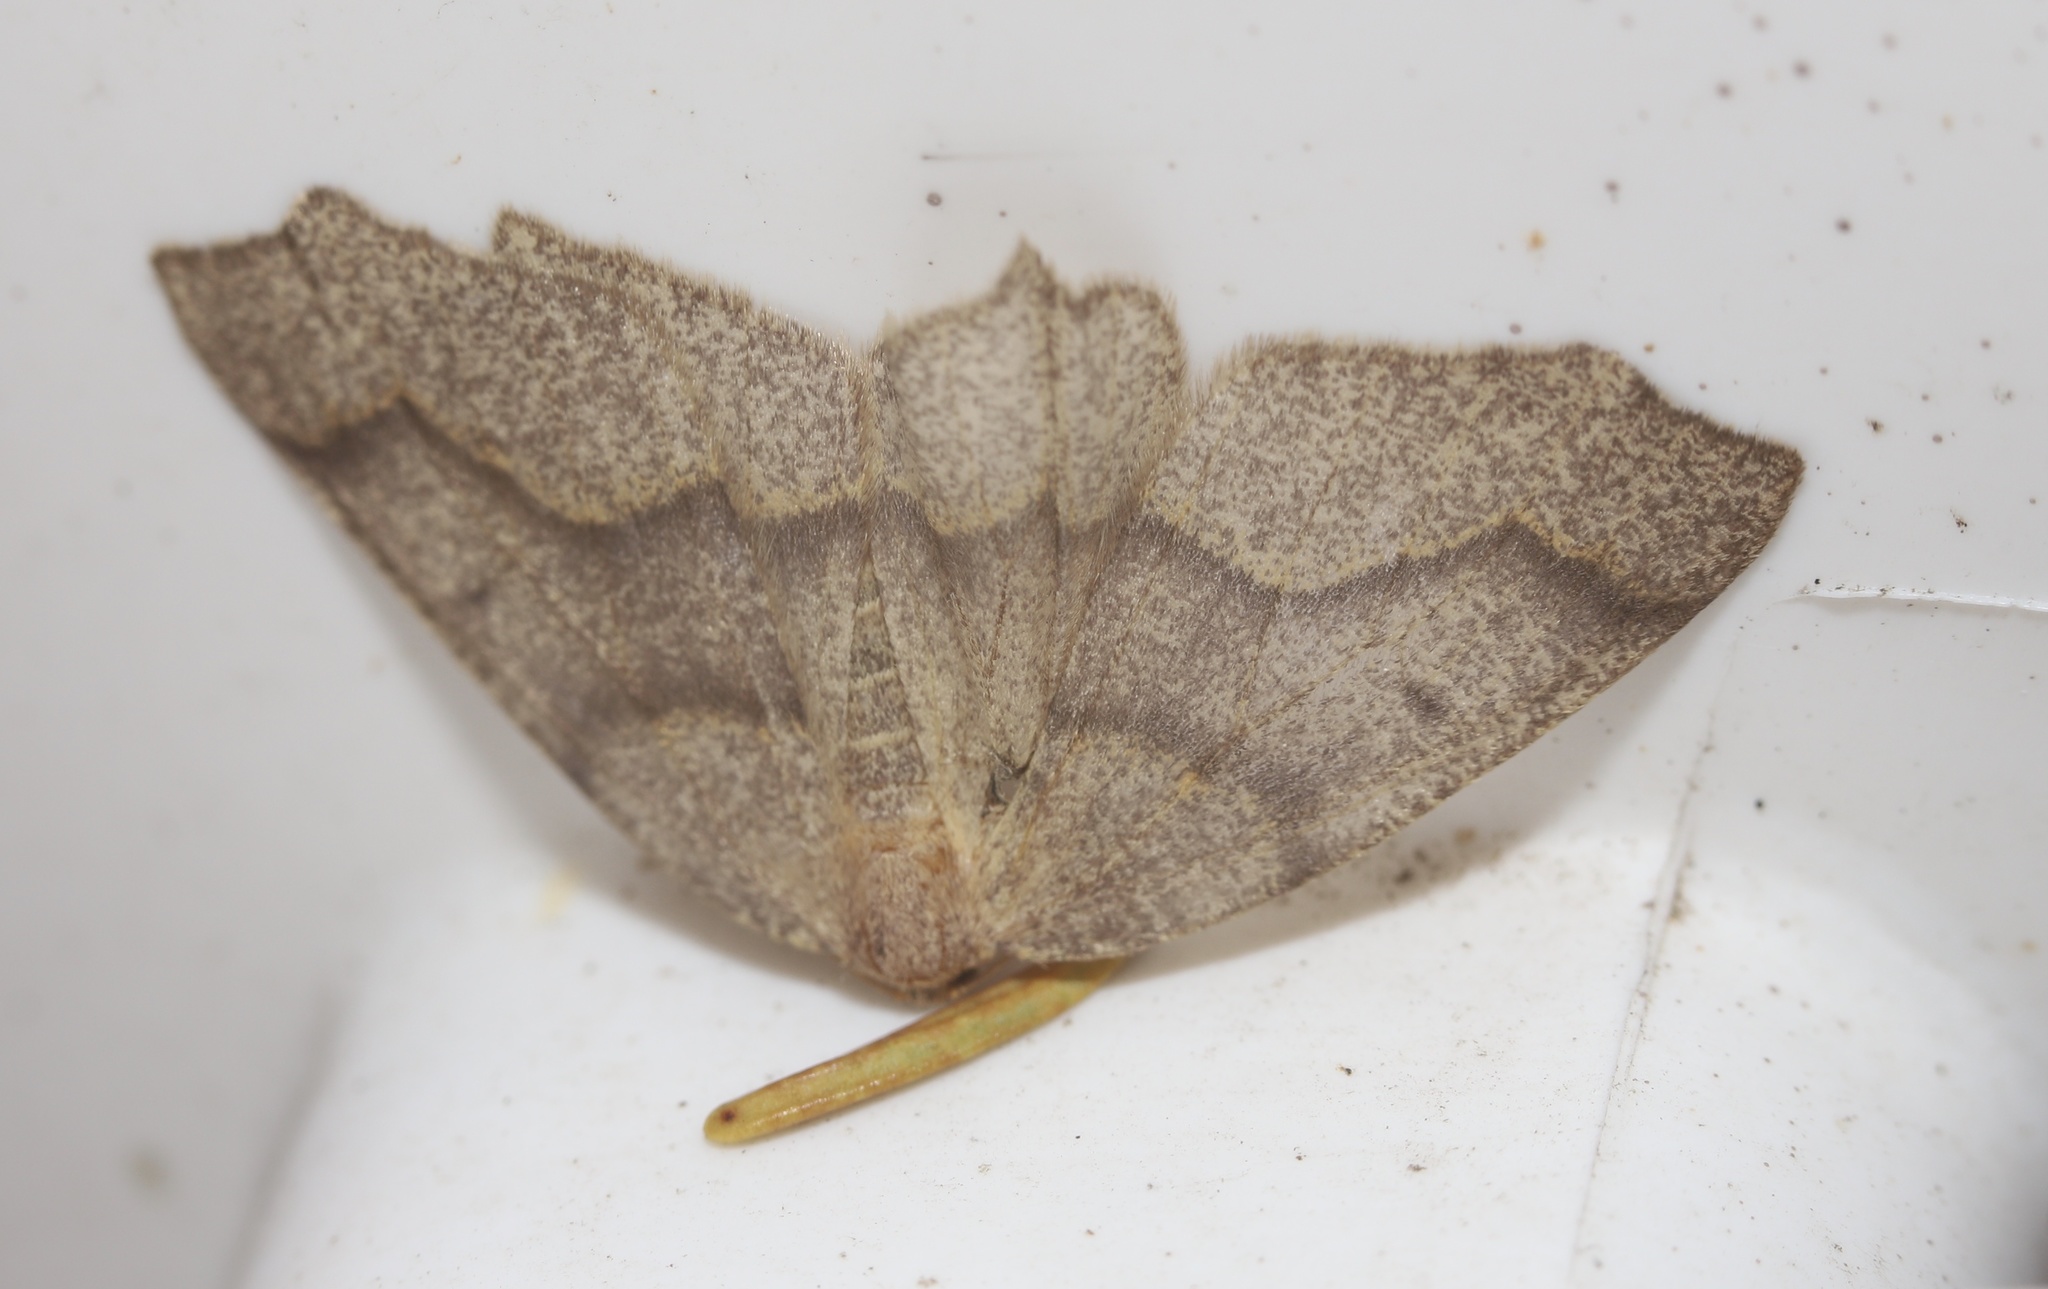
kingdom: Animalia
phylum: Arthropoda
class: Insecta
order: Lepidoptera
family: Geometridae
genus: Lambdina
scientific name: Lambdina fiscellaria
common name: Hemlock looper
